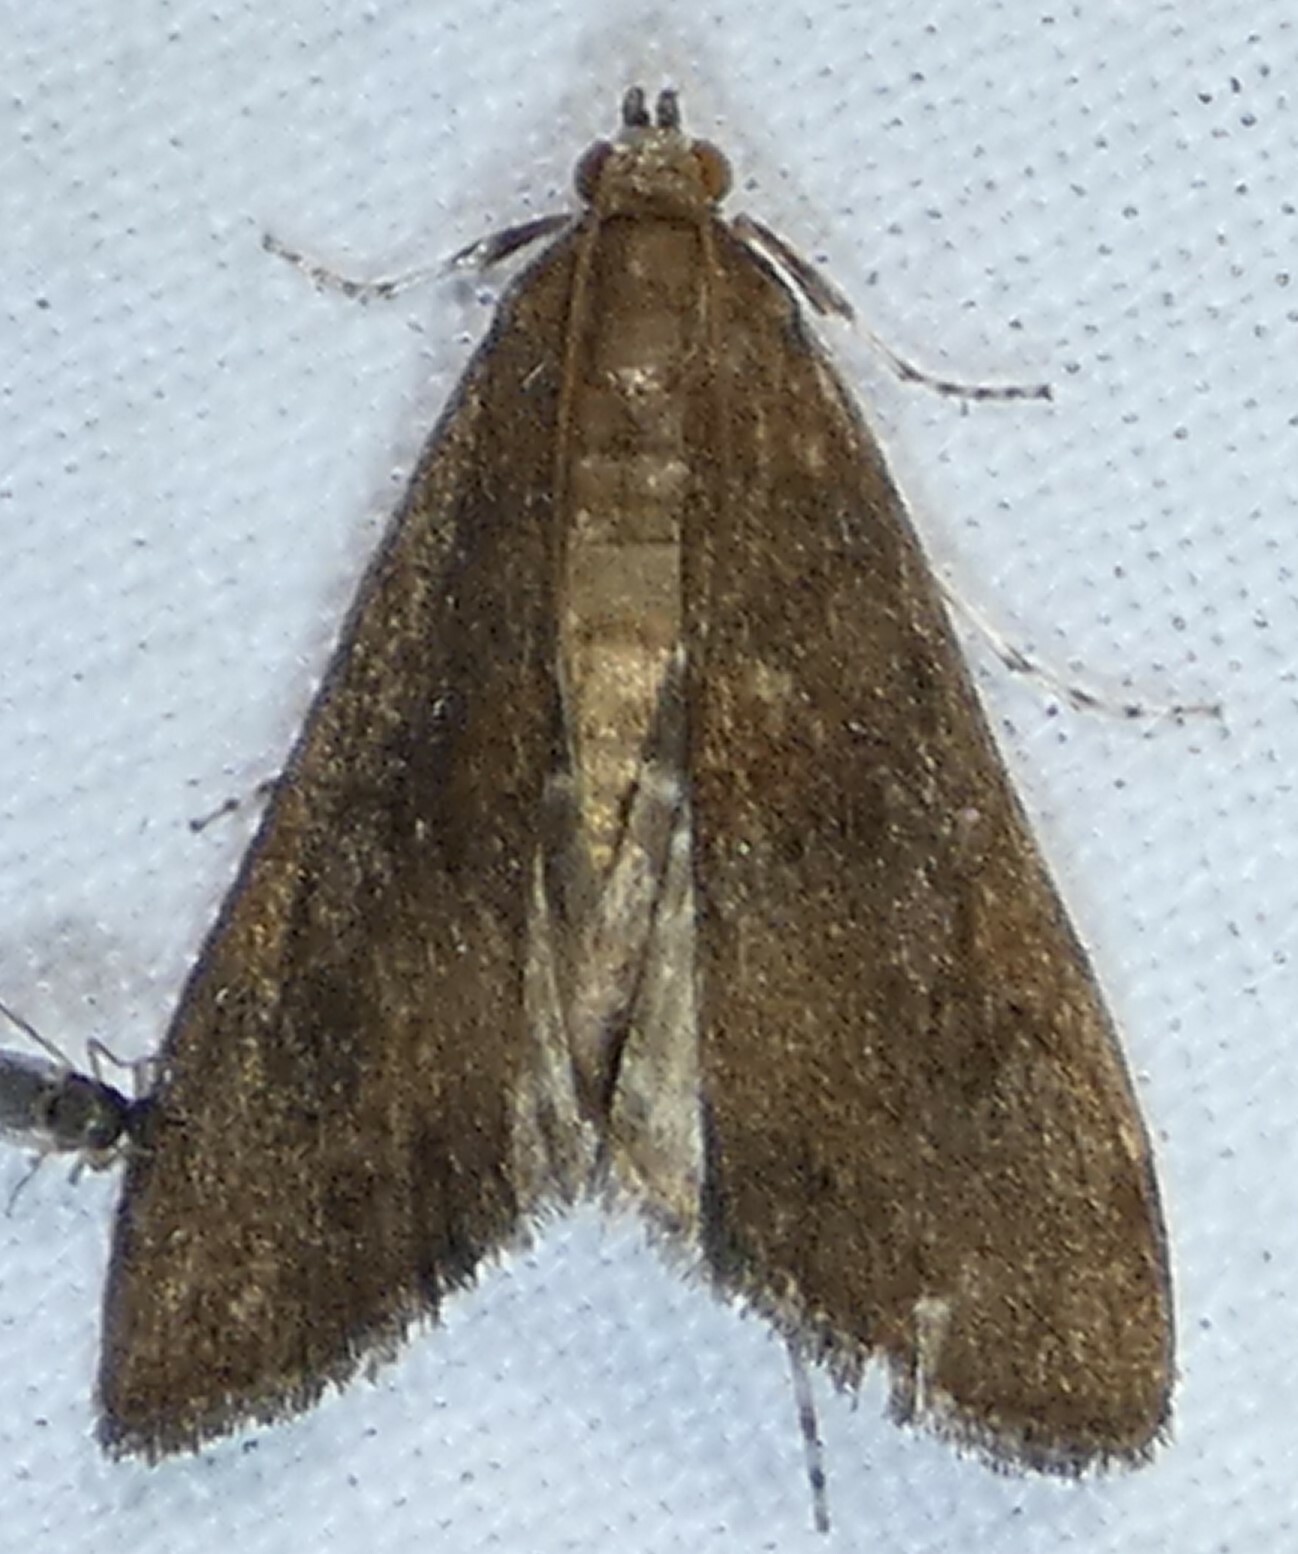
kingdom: Animalia
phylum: Arthropoda
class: Insecta
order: Lepidoptera
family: Crambidae
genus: Elophila
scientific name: Elophila gyralis
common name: Waterlily borer moth
